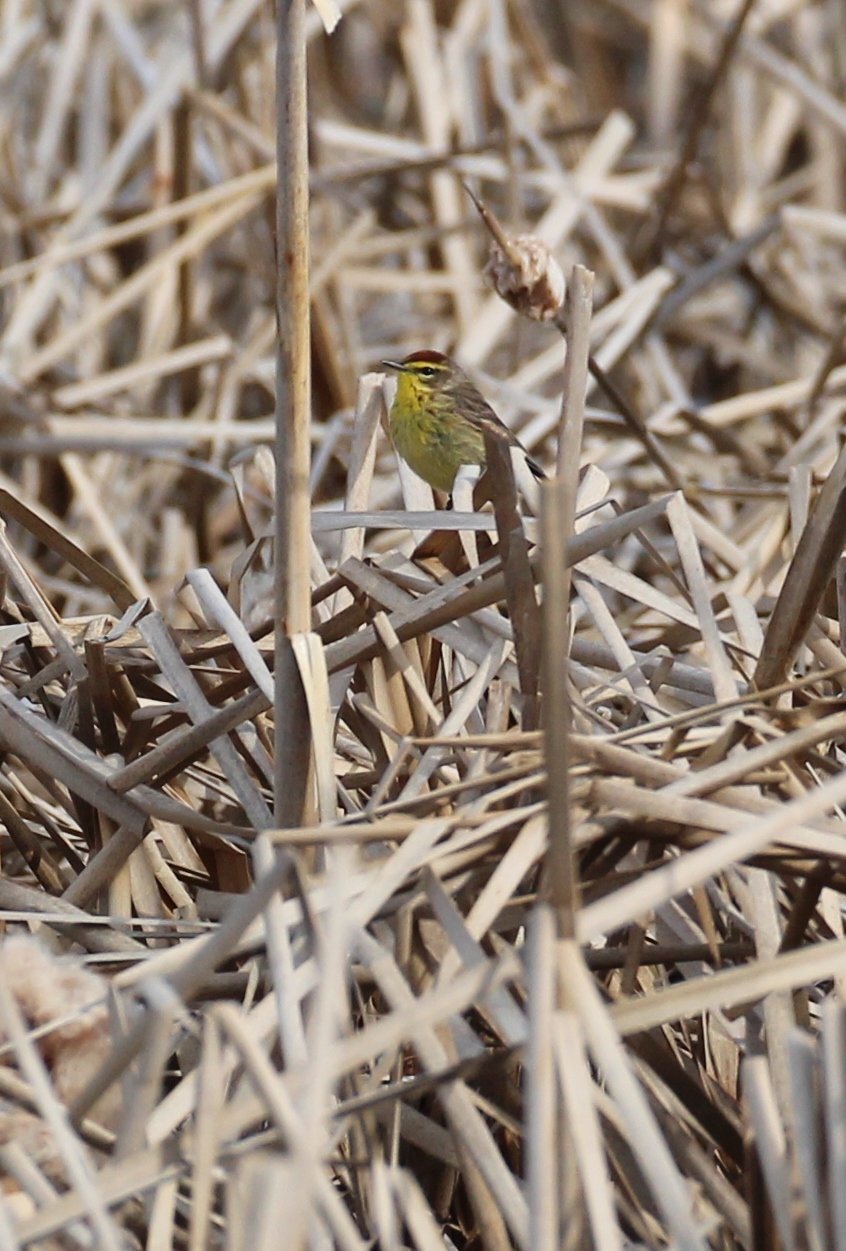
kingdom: Animalia
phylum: Chordata
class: Aves
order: Passeriformes
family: Parulidae
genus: Setophaga
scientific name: Setophaga palmarum
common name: Palm warbler
